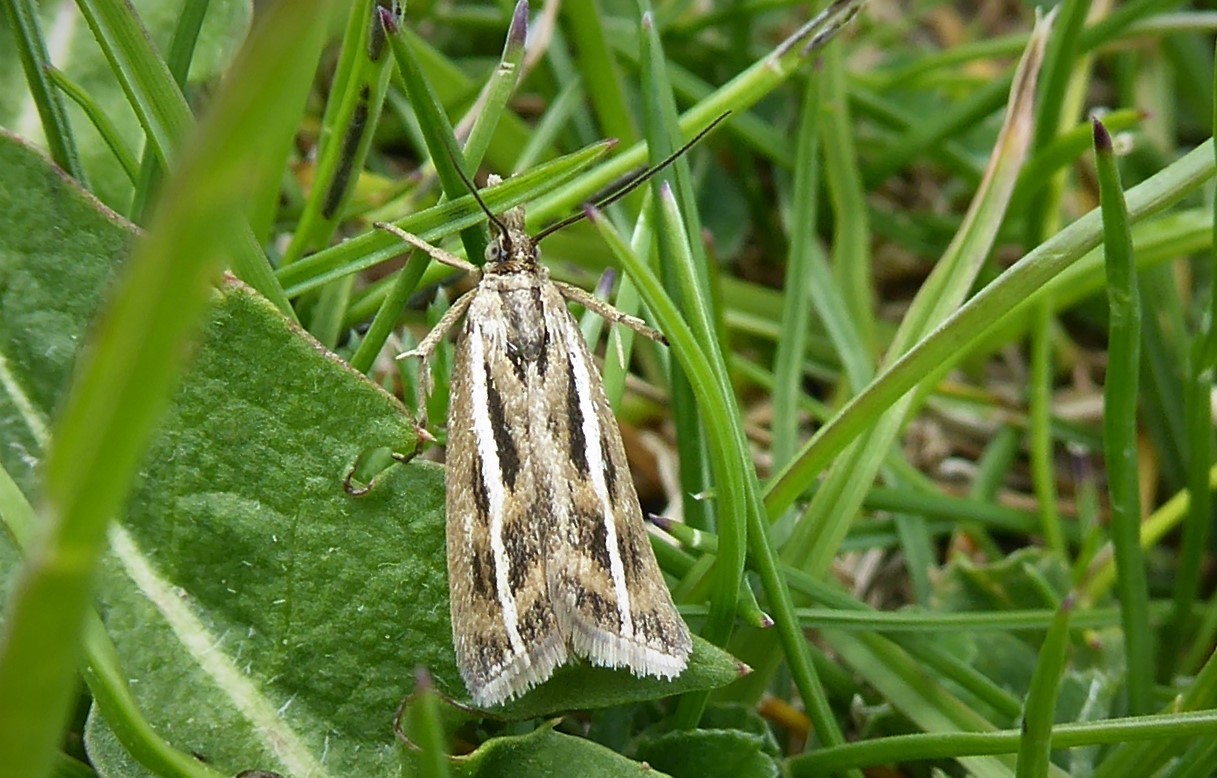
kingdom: Animalia
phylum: Arthropoda
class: Insecta
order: Lepidoptera
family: Crambidae
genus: Orocrambus
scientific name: Orocrambus corruptus
